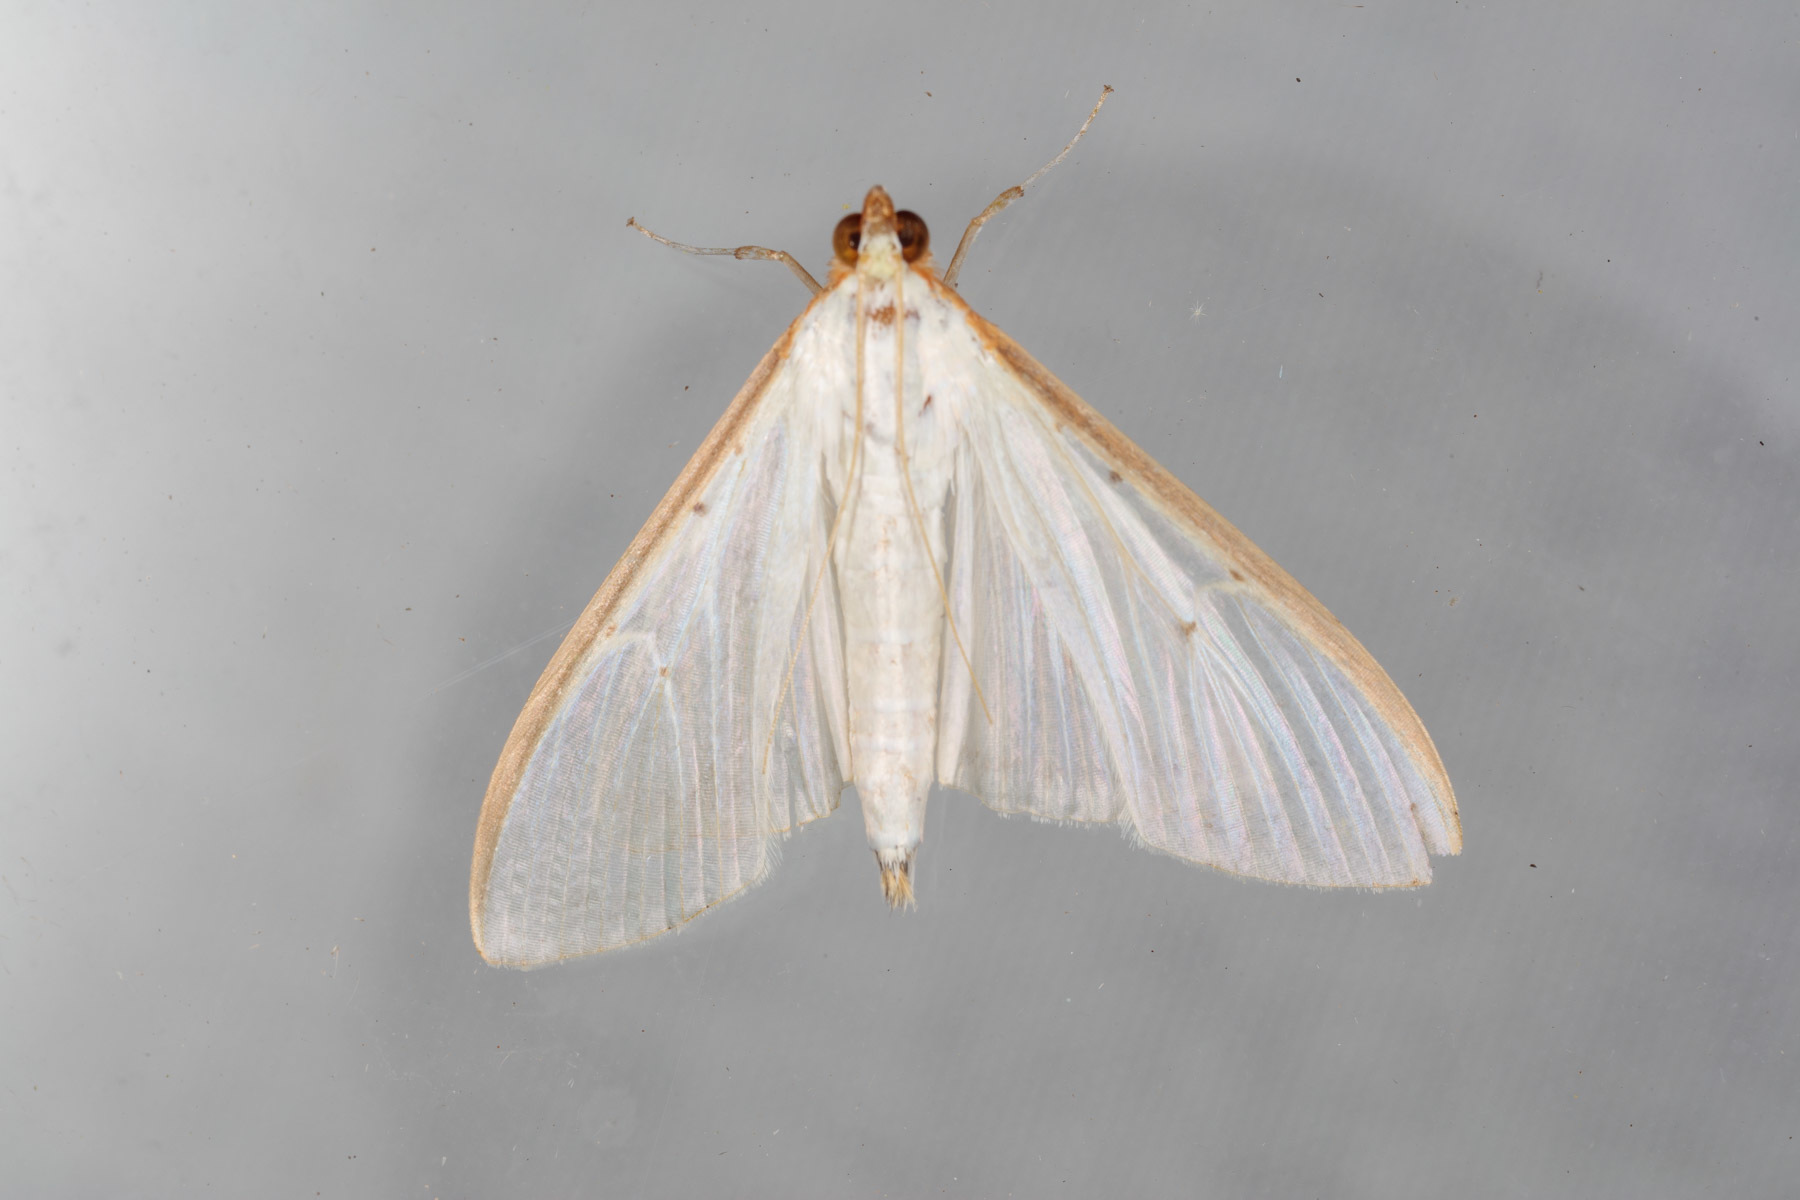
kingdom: Animalia
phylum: Arthropoda
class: Insecta
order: Lepidoptera
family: Crambidae
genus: Palpita
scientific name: Palpita quadristigmalis
